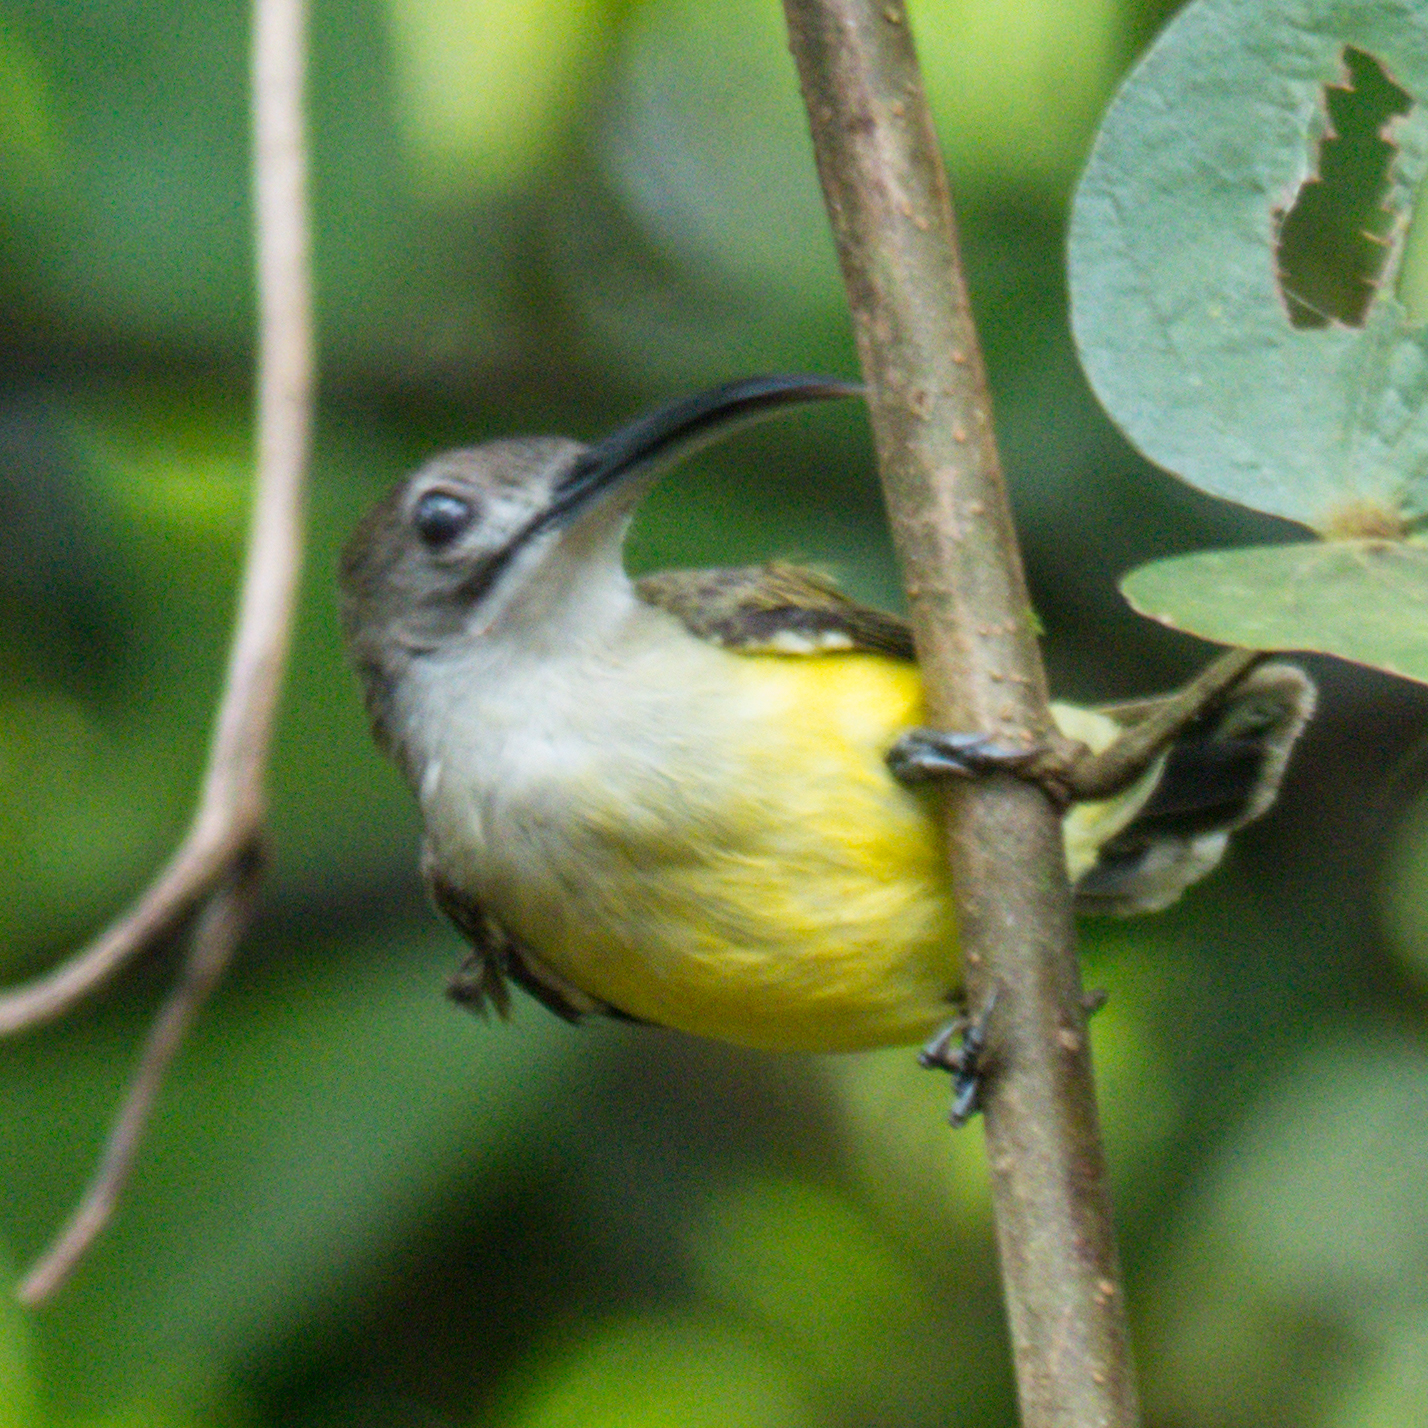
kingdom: Animalia
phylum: Chordata
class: Aves
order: Passeriformes
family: Nectariniidae
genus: Arachnothera
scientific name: Arachnothera longirostra
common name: Little spiderhunter
